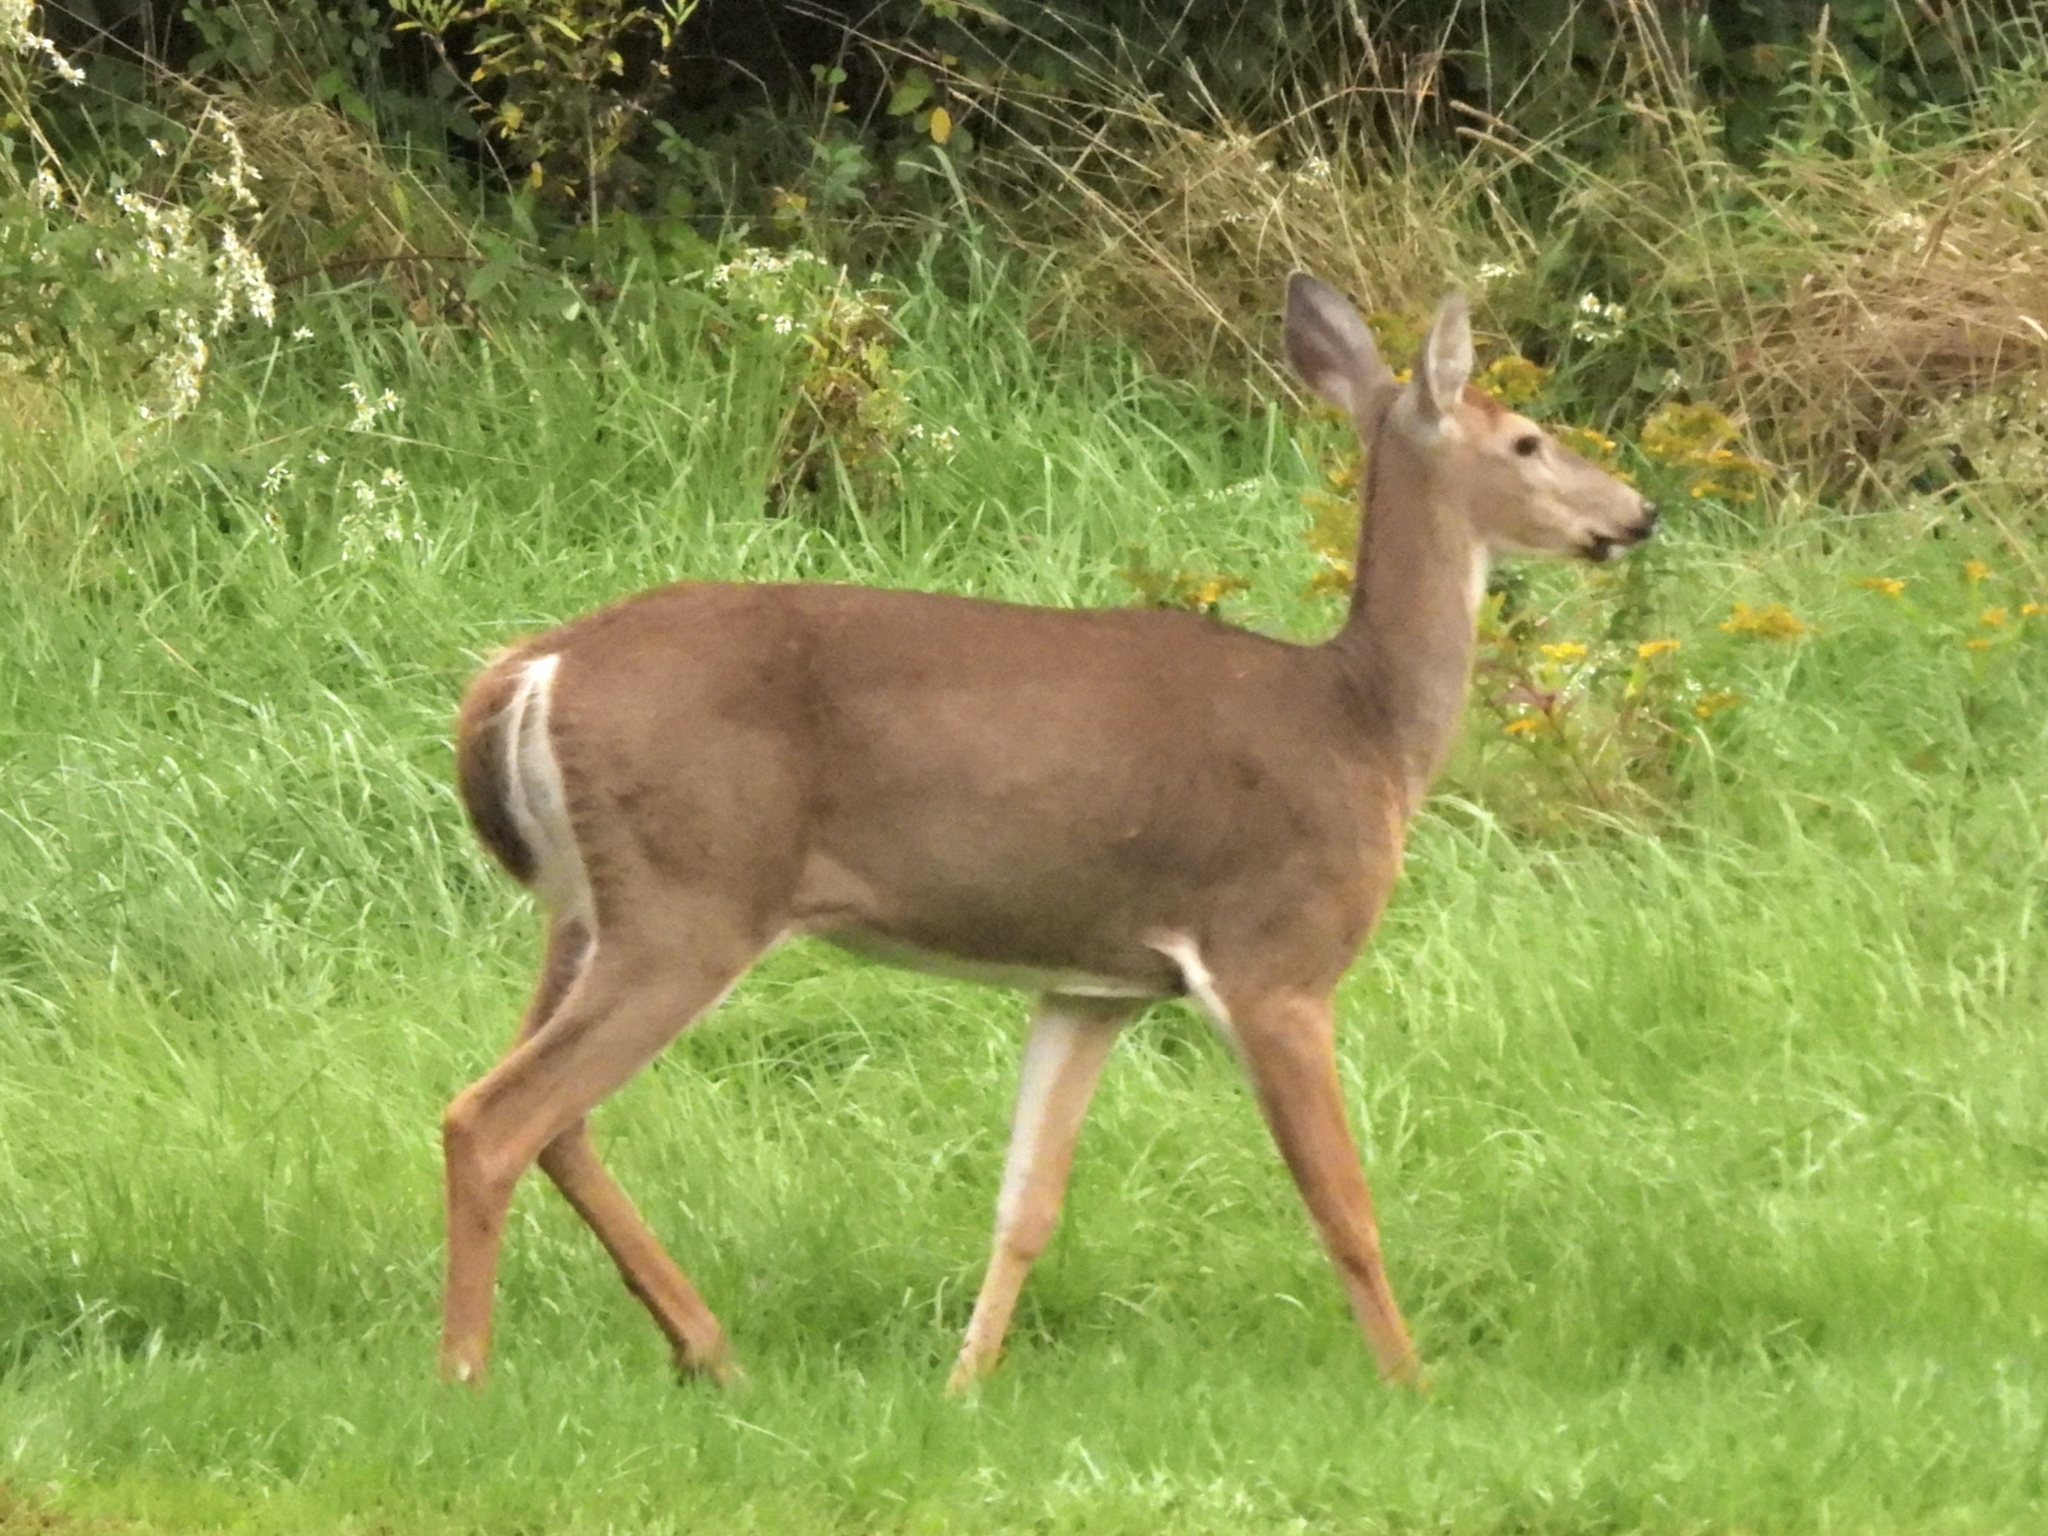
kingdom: Animalia
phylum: Chordata
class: Mammalia
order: Artiodactyla
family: Cervidae
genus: Odocoileus
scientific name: Odocoileus virginianus
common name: White-tailed deer
